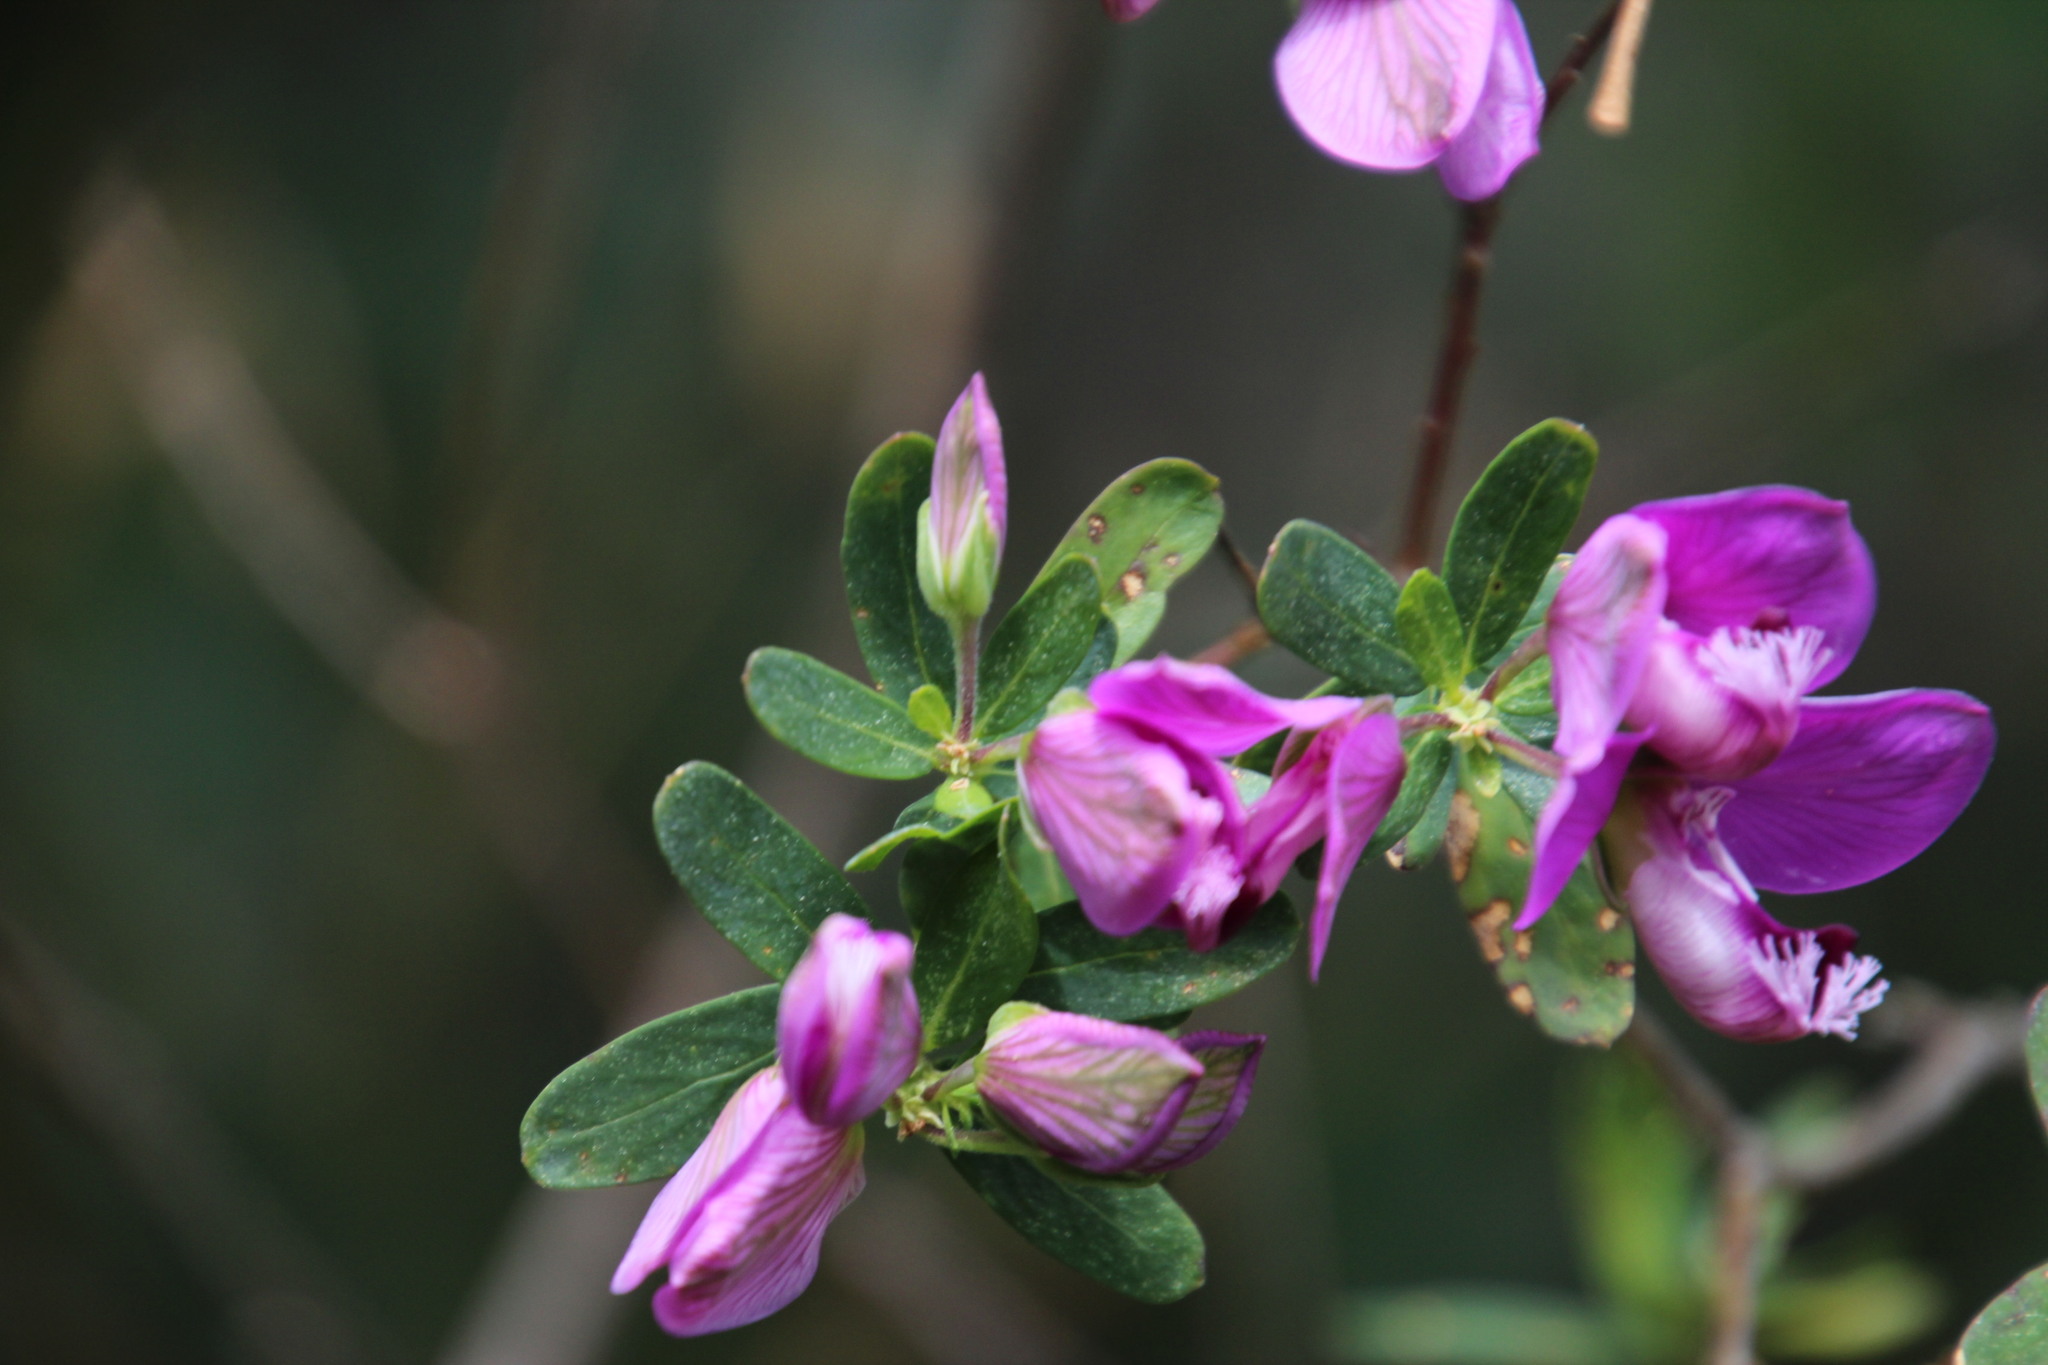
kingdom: Plantae
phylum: Tracheophyta
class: Magnoliopsida
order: Fabales
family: Polygalaceae
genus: Polygala
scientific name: Polygala myrtifolia
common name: Myrtle-leaf milkwort
